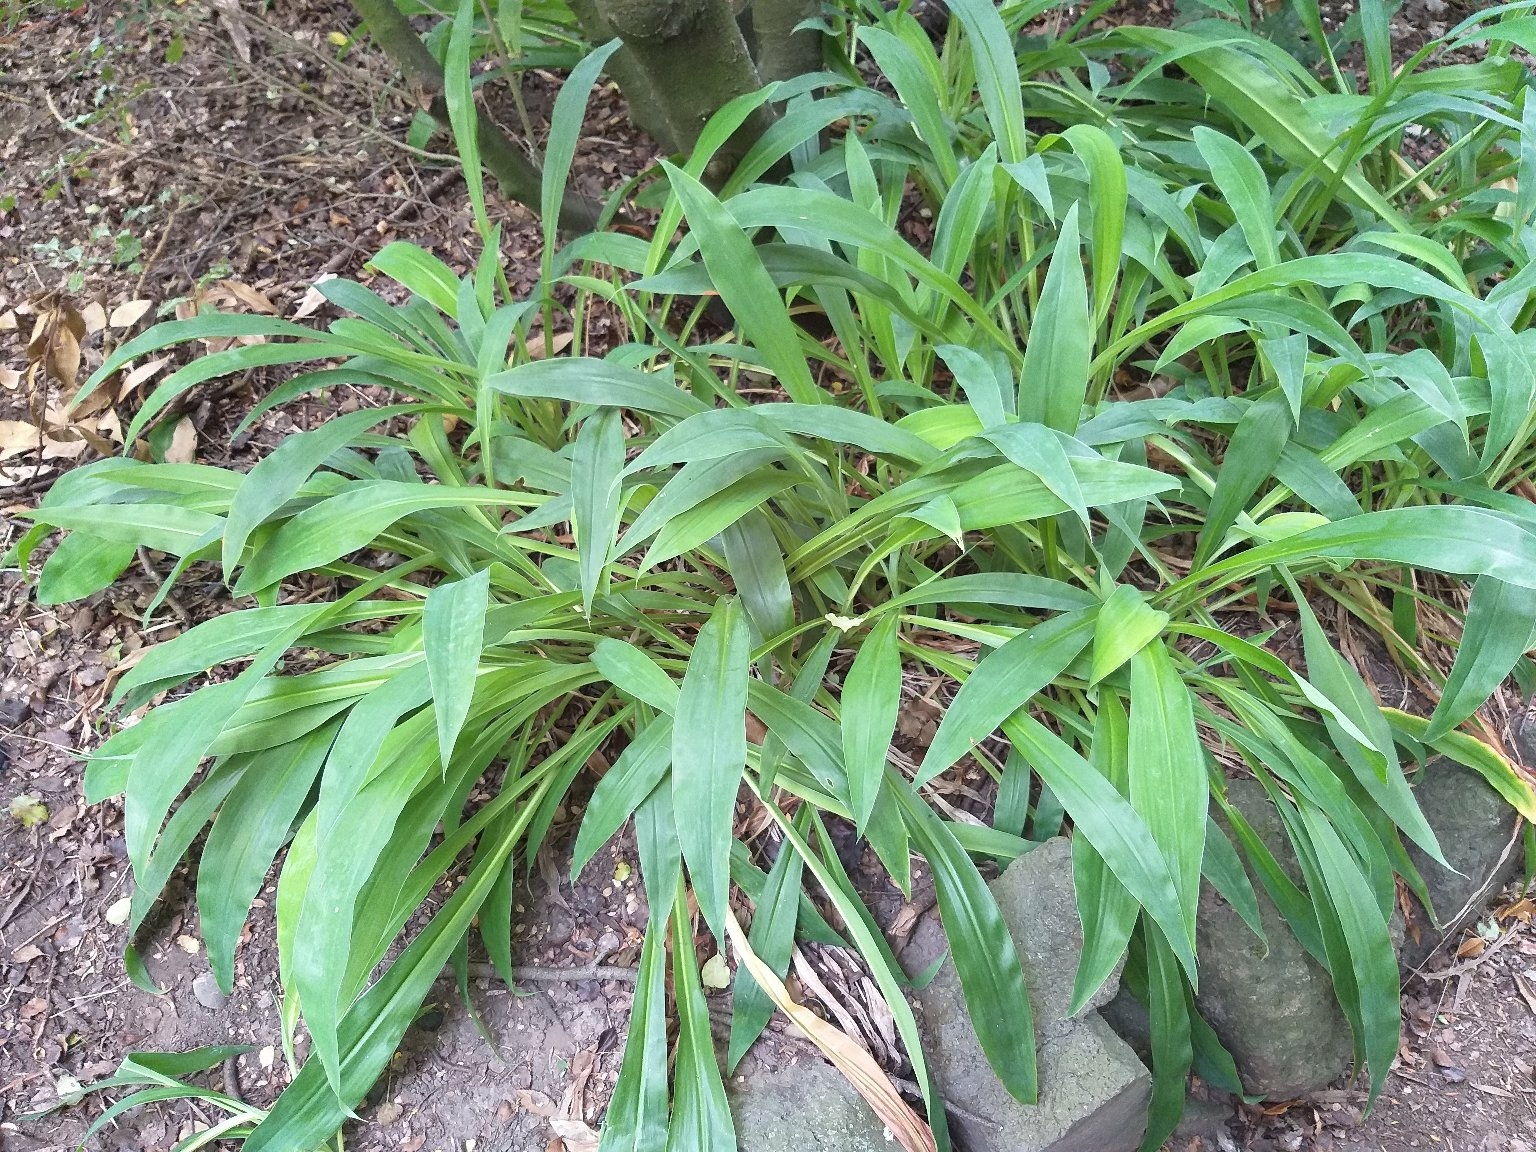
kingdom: Plantae
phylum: Tracheophyta
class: Liliopsida
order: Asparagales
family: Asparagaceae
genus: Arthropodium
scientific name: Arthropodium cirratum
